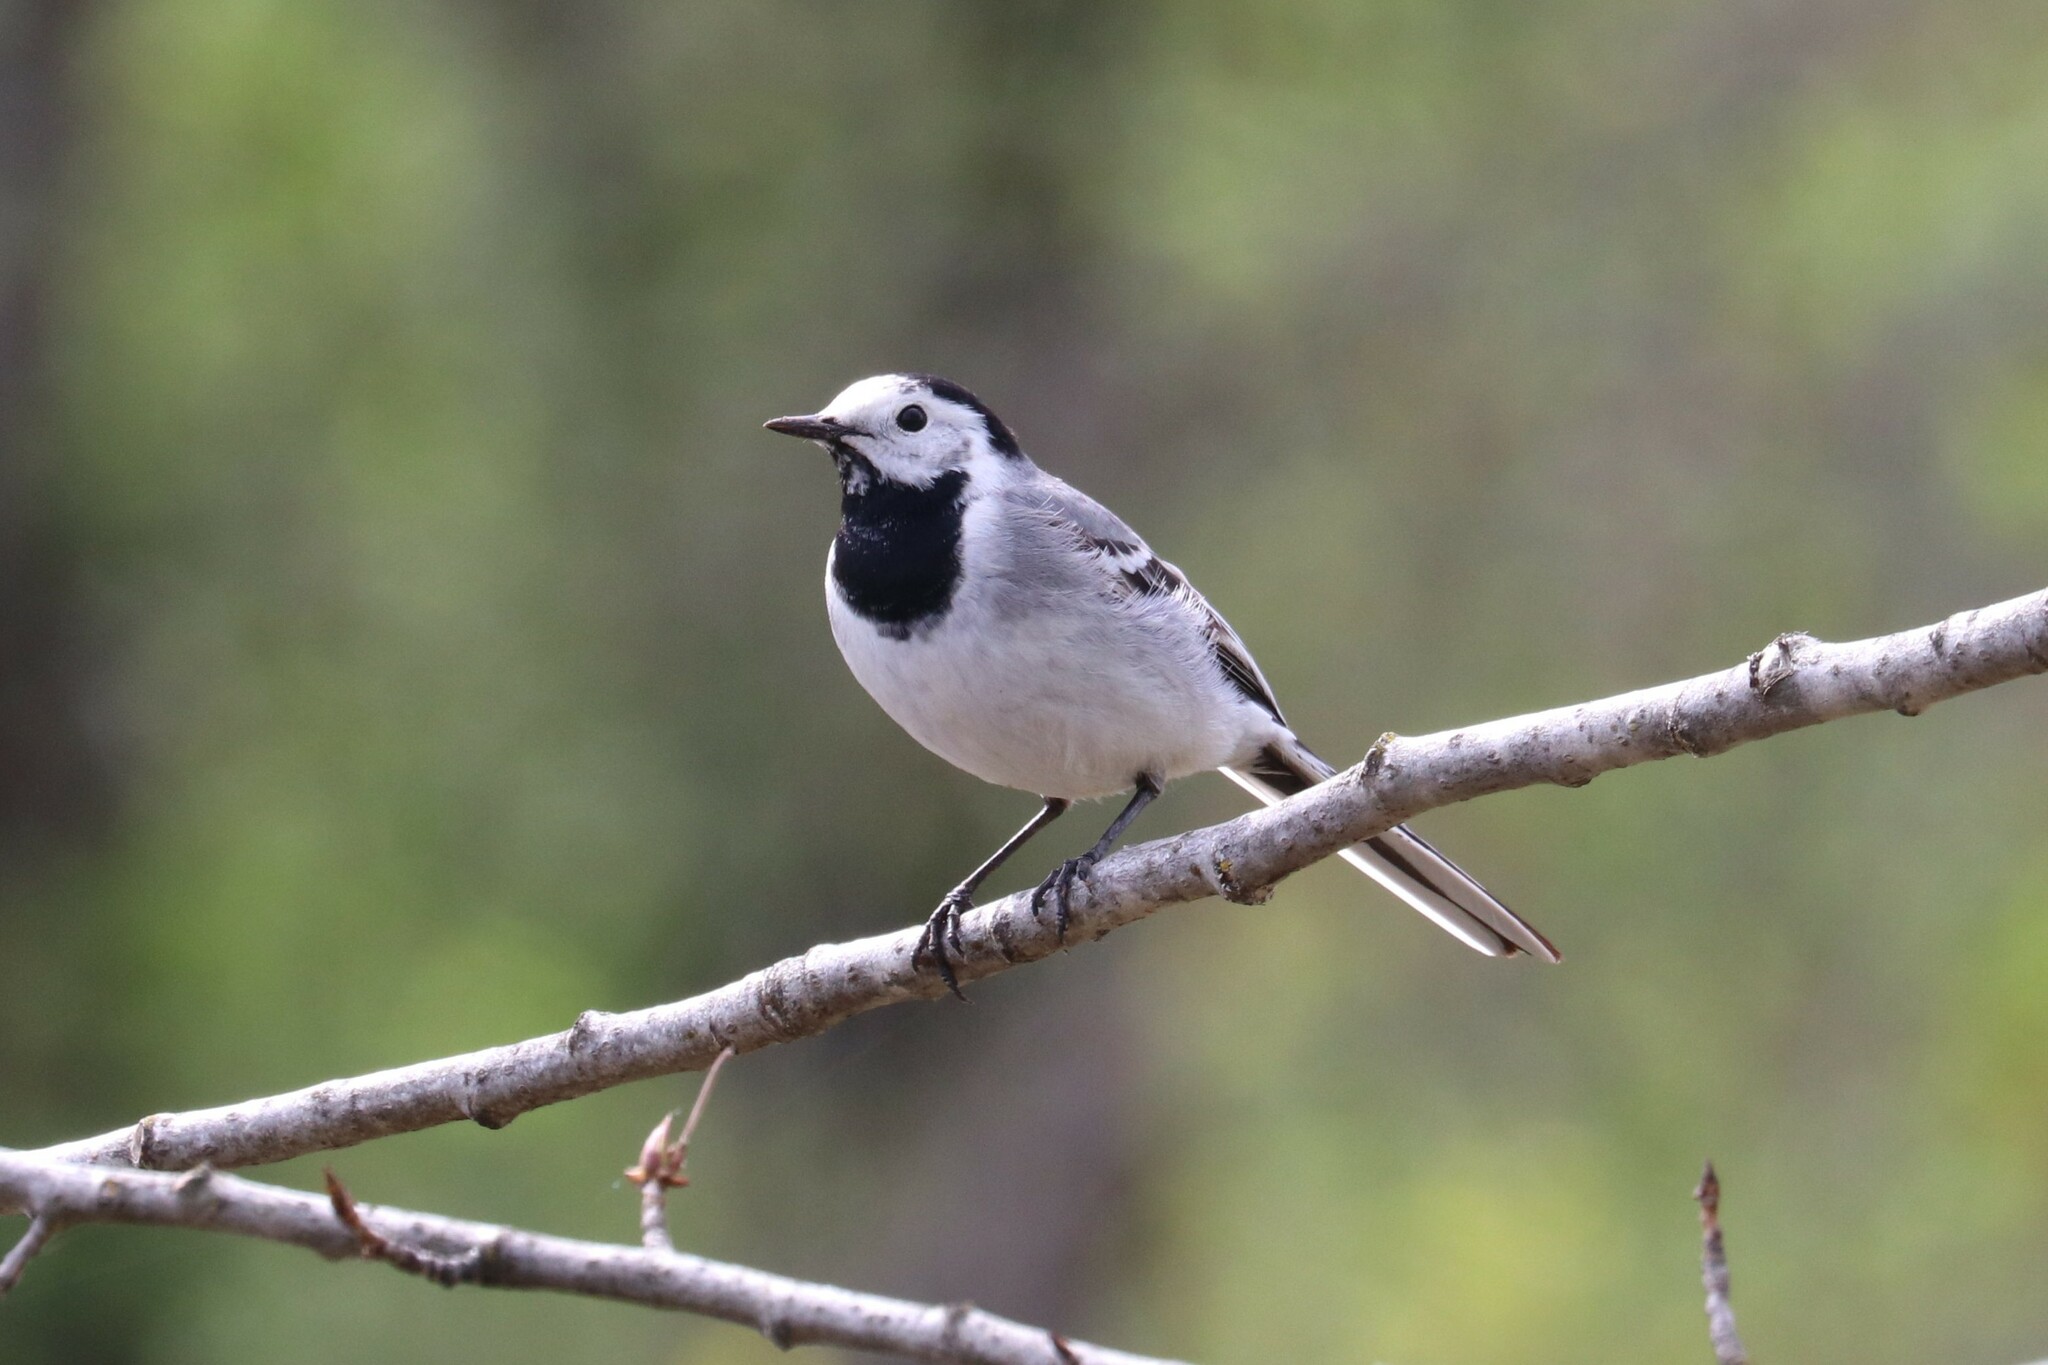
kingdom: Animalia
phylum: Chordata
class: Aves
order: Passeriformes
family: Motacillidae
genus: Motacilla
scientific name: Motacilla alba
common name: White wagtail
